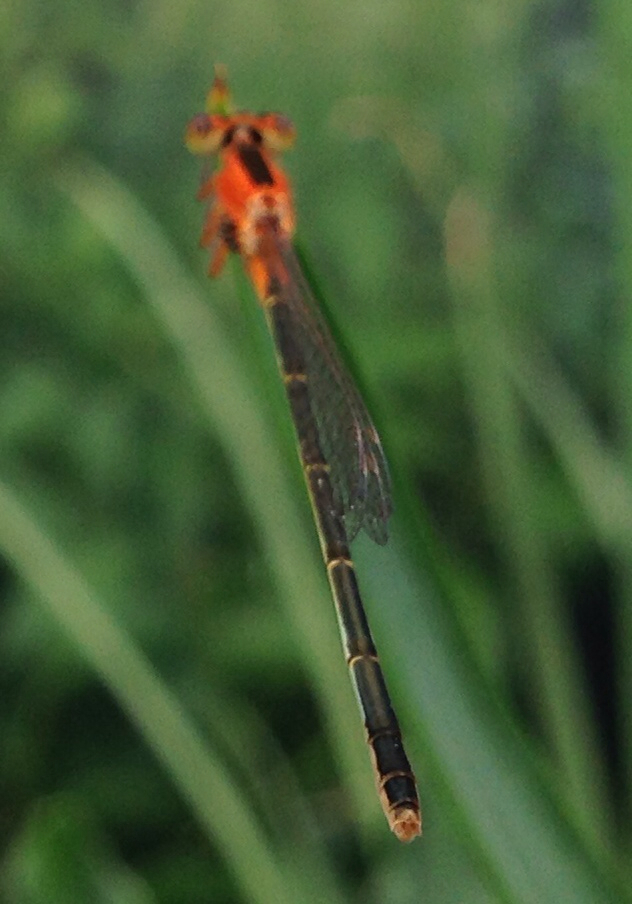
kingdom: Animalia
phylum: Arthropoda
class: Insecta
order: Odonata
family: Coenagrionidae
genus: Ischnura
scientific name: Ischnura ramburii
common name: Rambur's forktail
